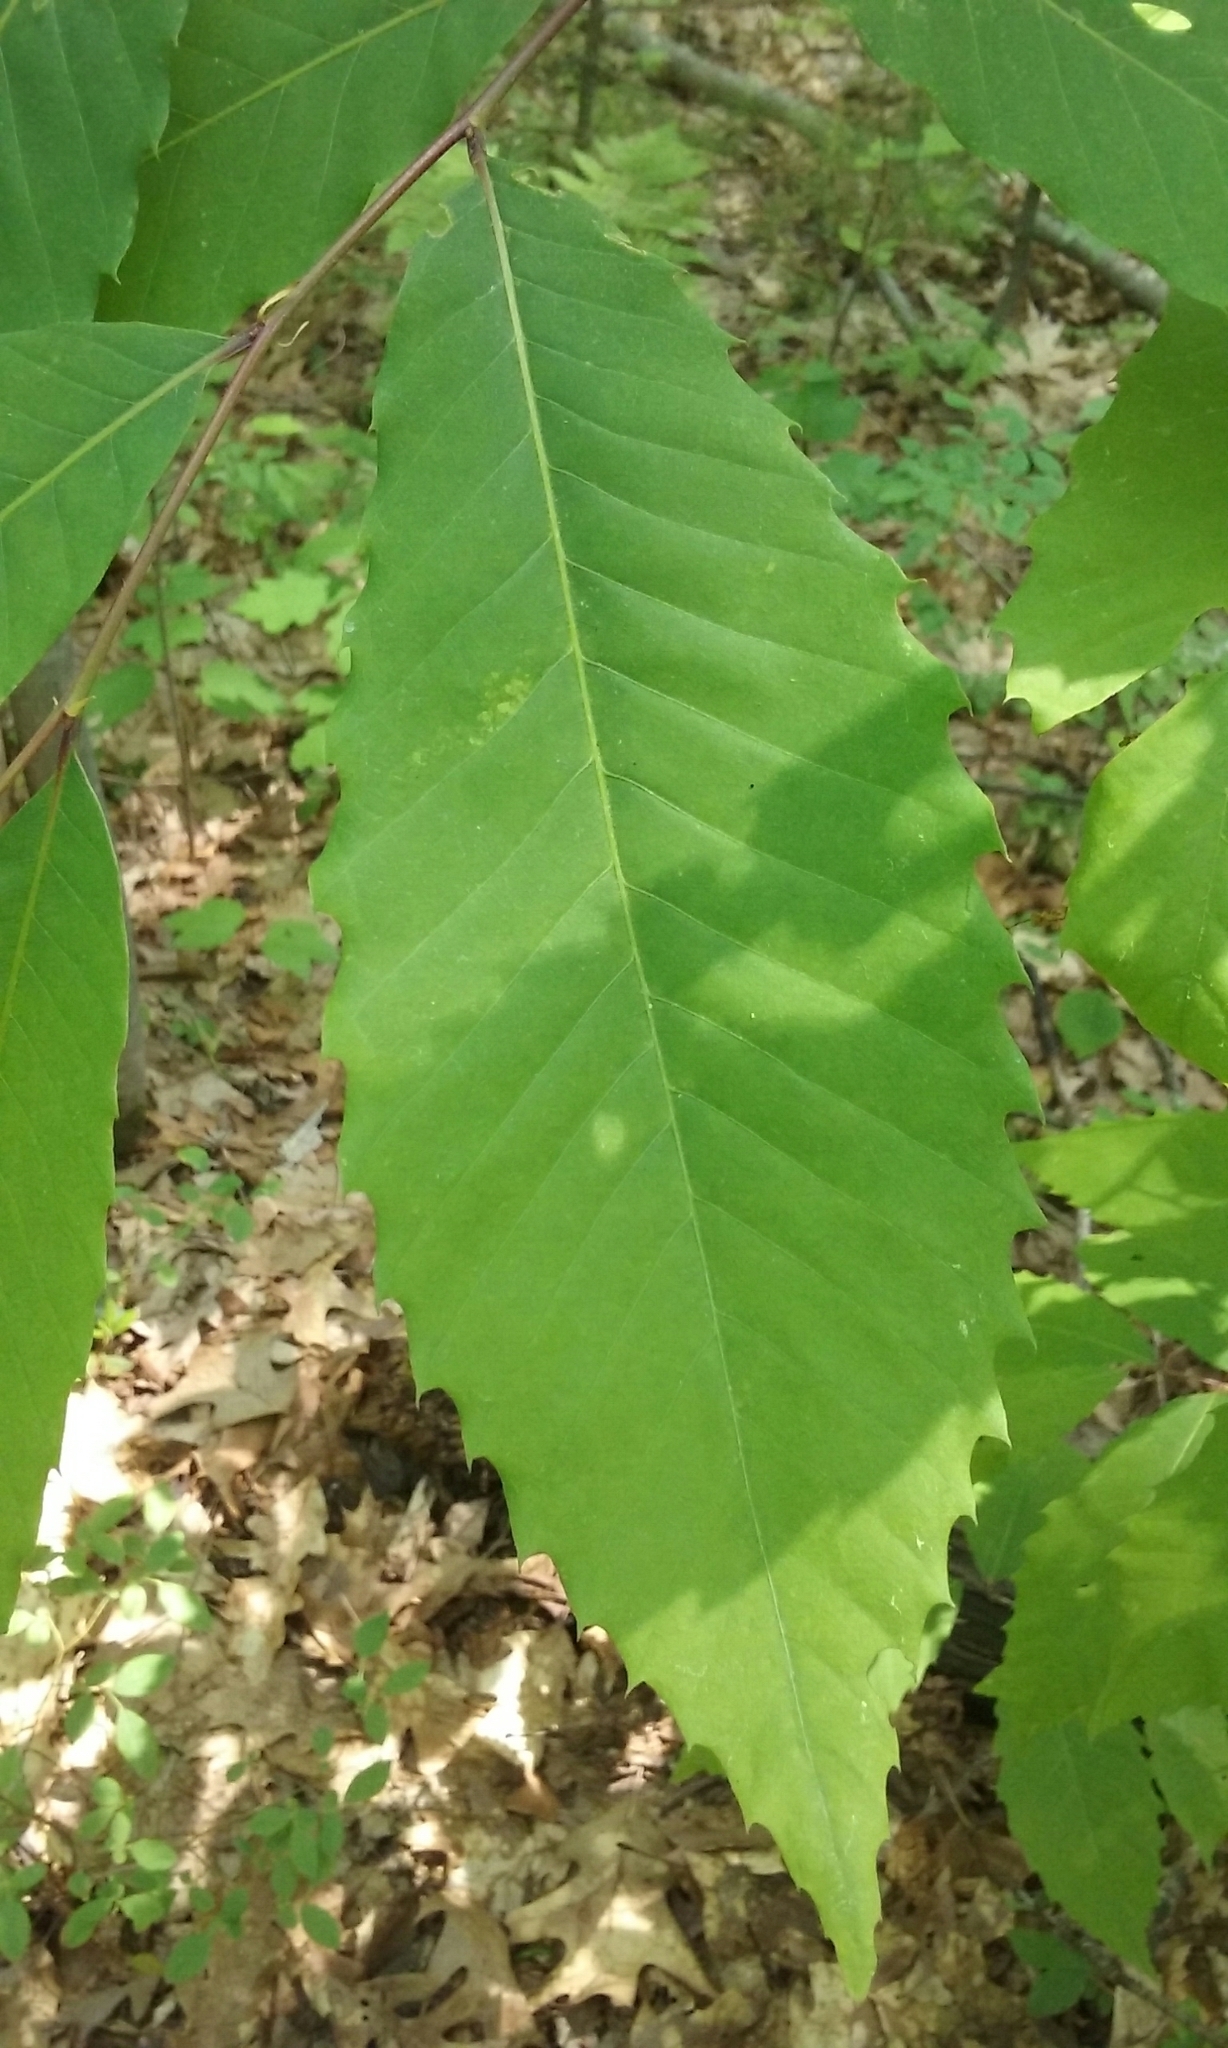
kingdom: Plantae
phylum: Tracheophyta
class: Magnoliopsida
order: Fagales
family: Fagaceae
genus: Castanea
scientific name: Castanea dentata
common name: American chestnut
